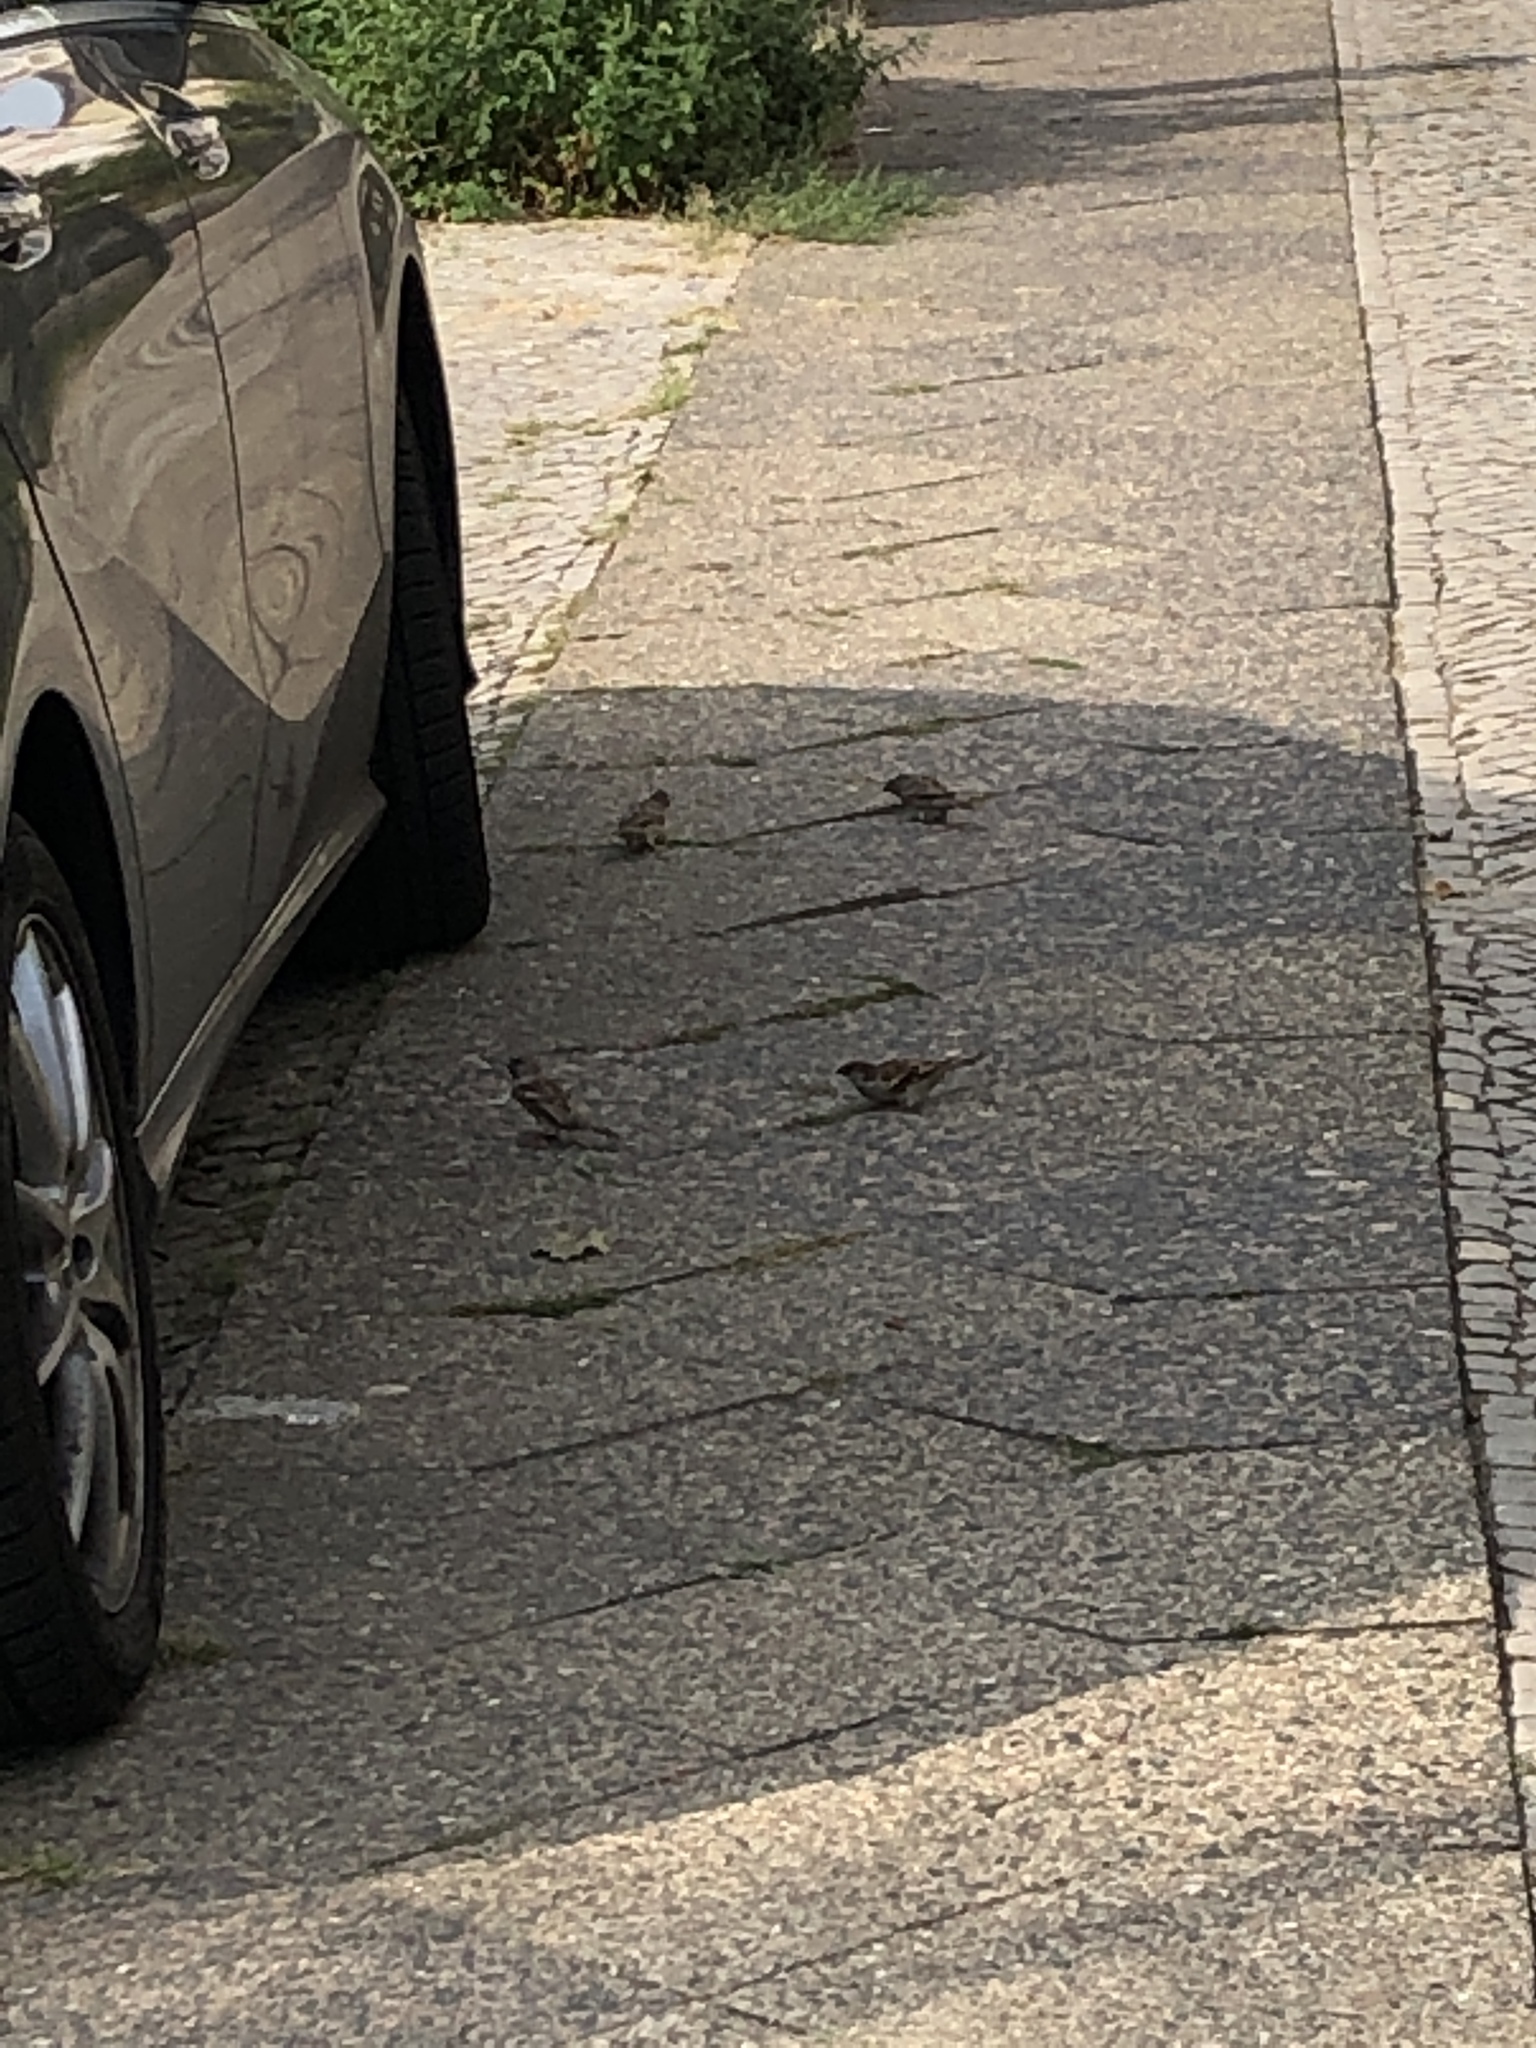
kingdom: Animalia
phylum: Chordata
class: Aves
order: Passeriformes
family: Passeridae
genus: Passer
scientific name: Passer domesticus
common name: House sparrow
